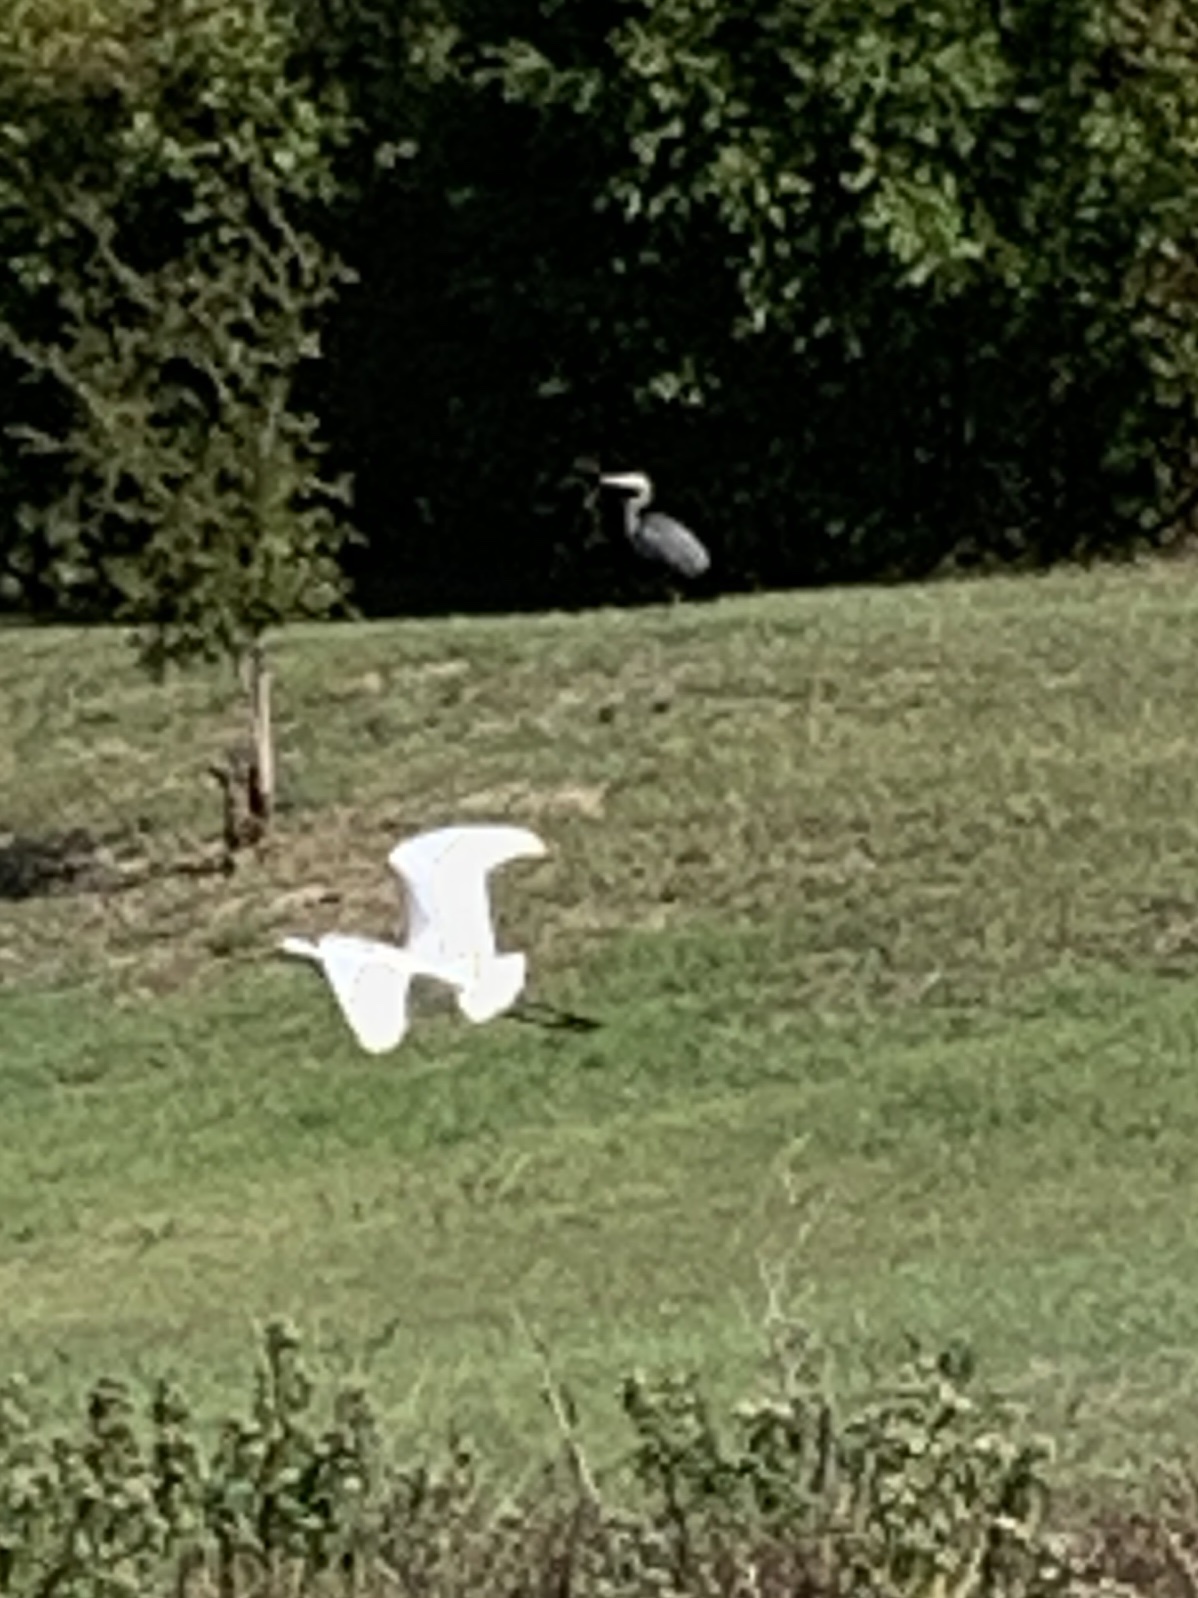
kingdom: Animalia
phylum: Chordata
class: Aves
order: Pelecaniformes
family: Ardeidae
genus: Ardea
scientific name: Ardea alba
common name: Great egret
